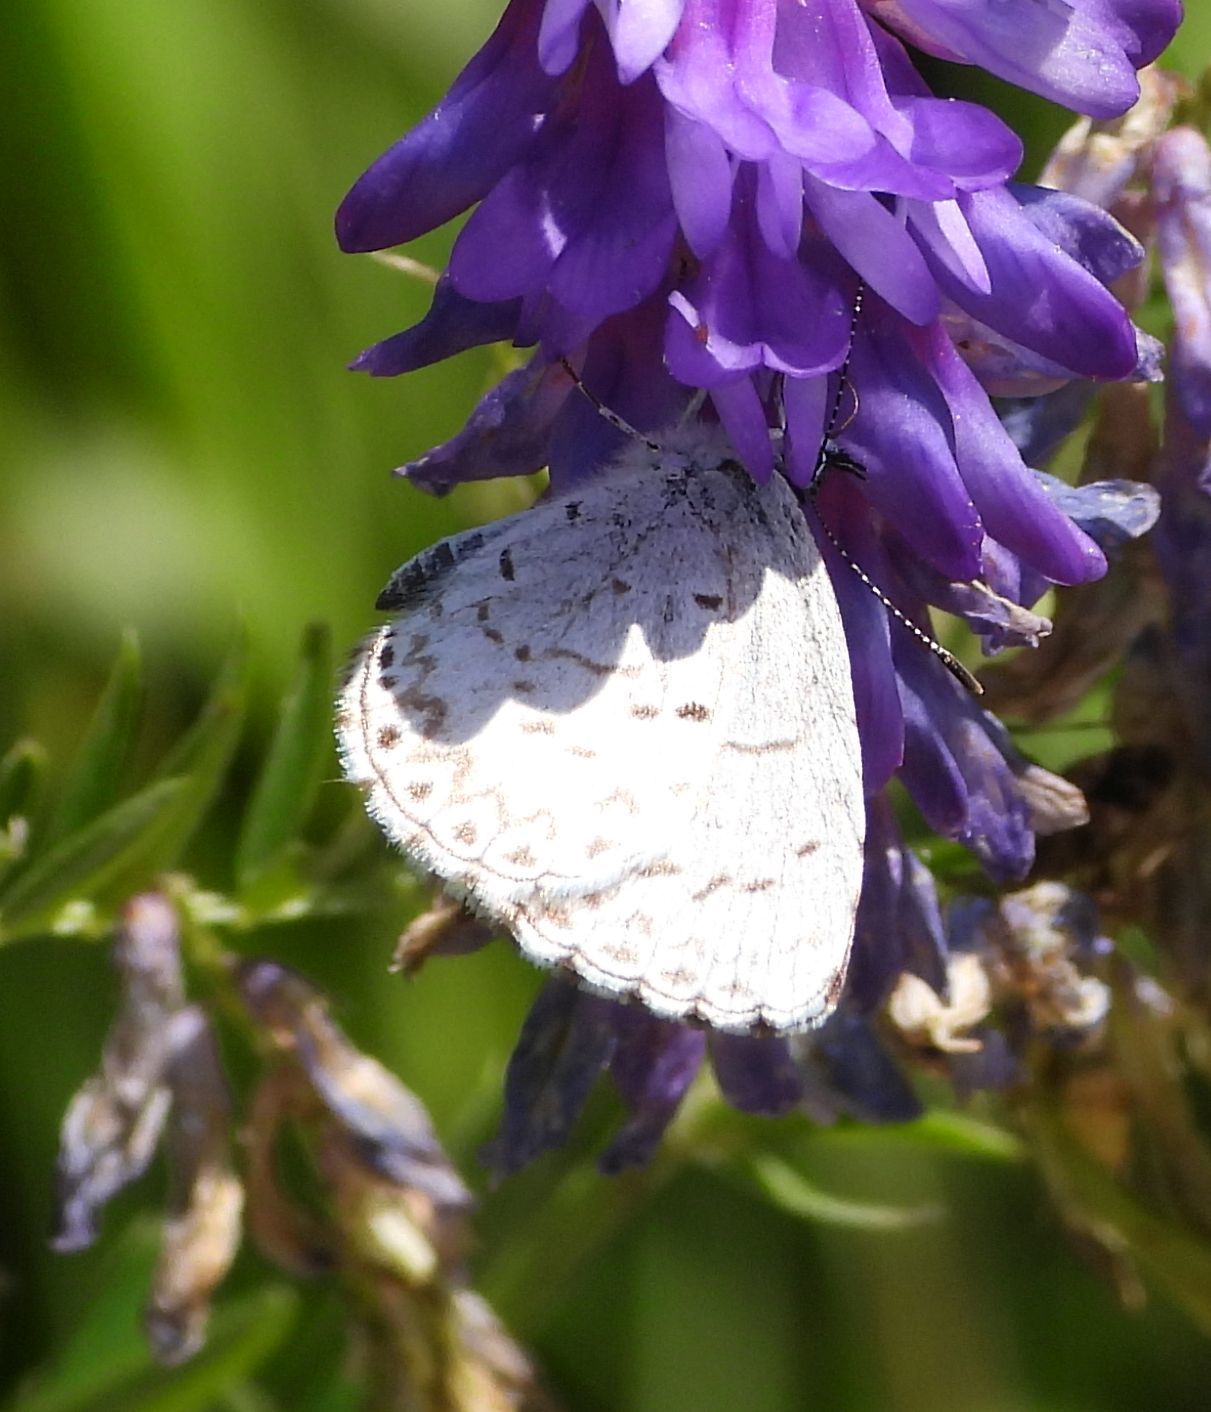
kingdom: Animalia
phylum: Arthropoda
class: Insecta
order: Lepidoptera
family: Lycaenidae
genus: Celastrina
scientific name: Celastrina lucia
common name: Lucia azure
